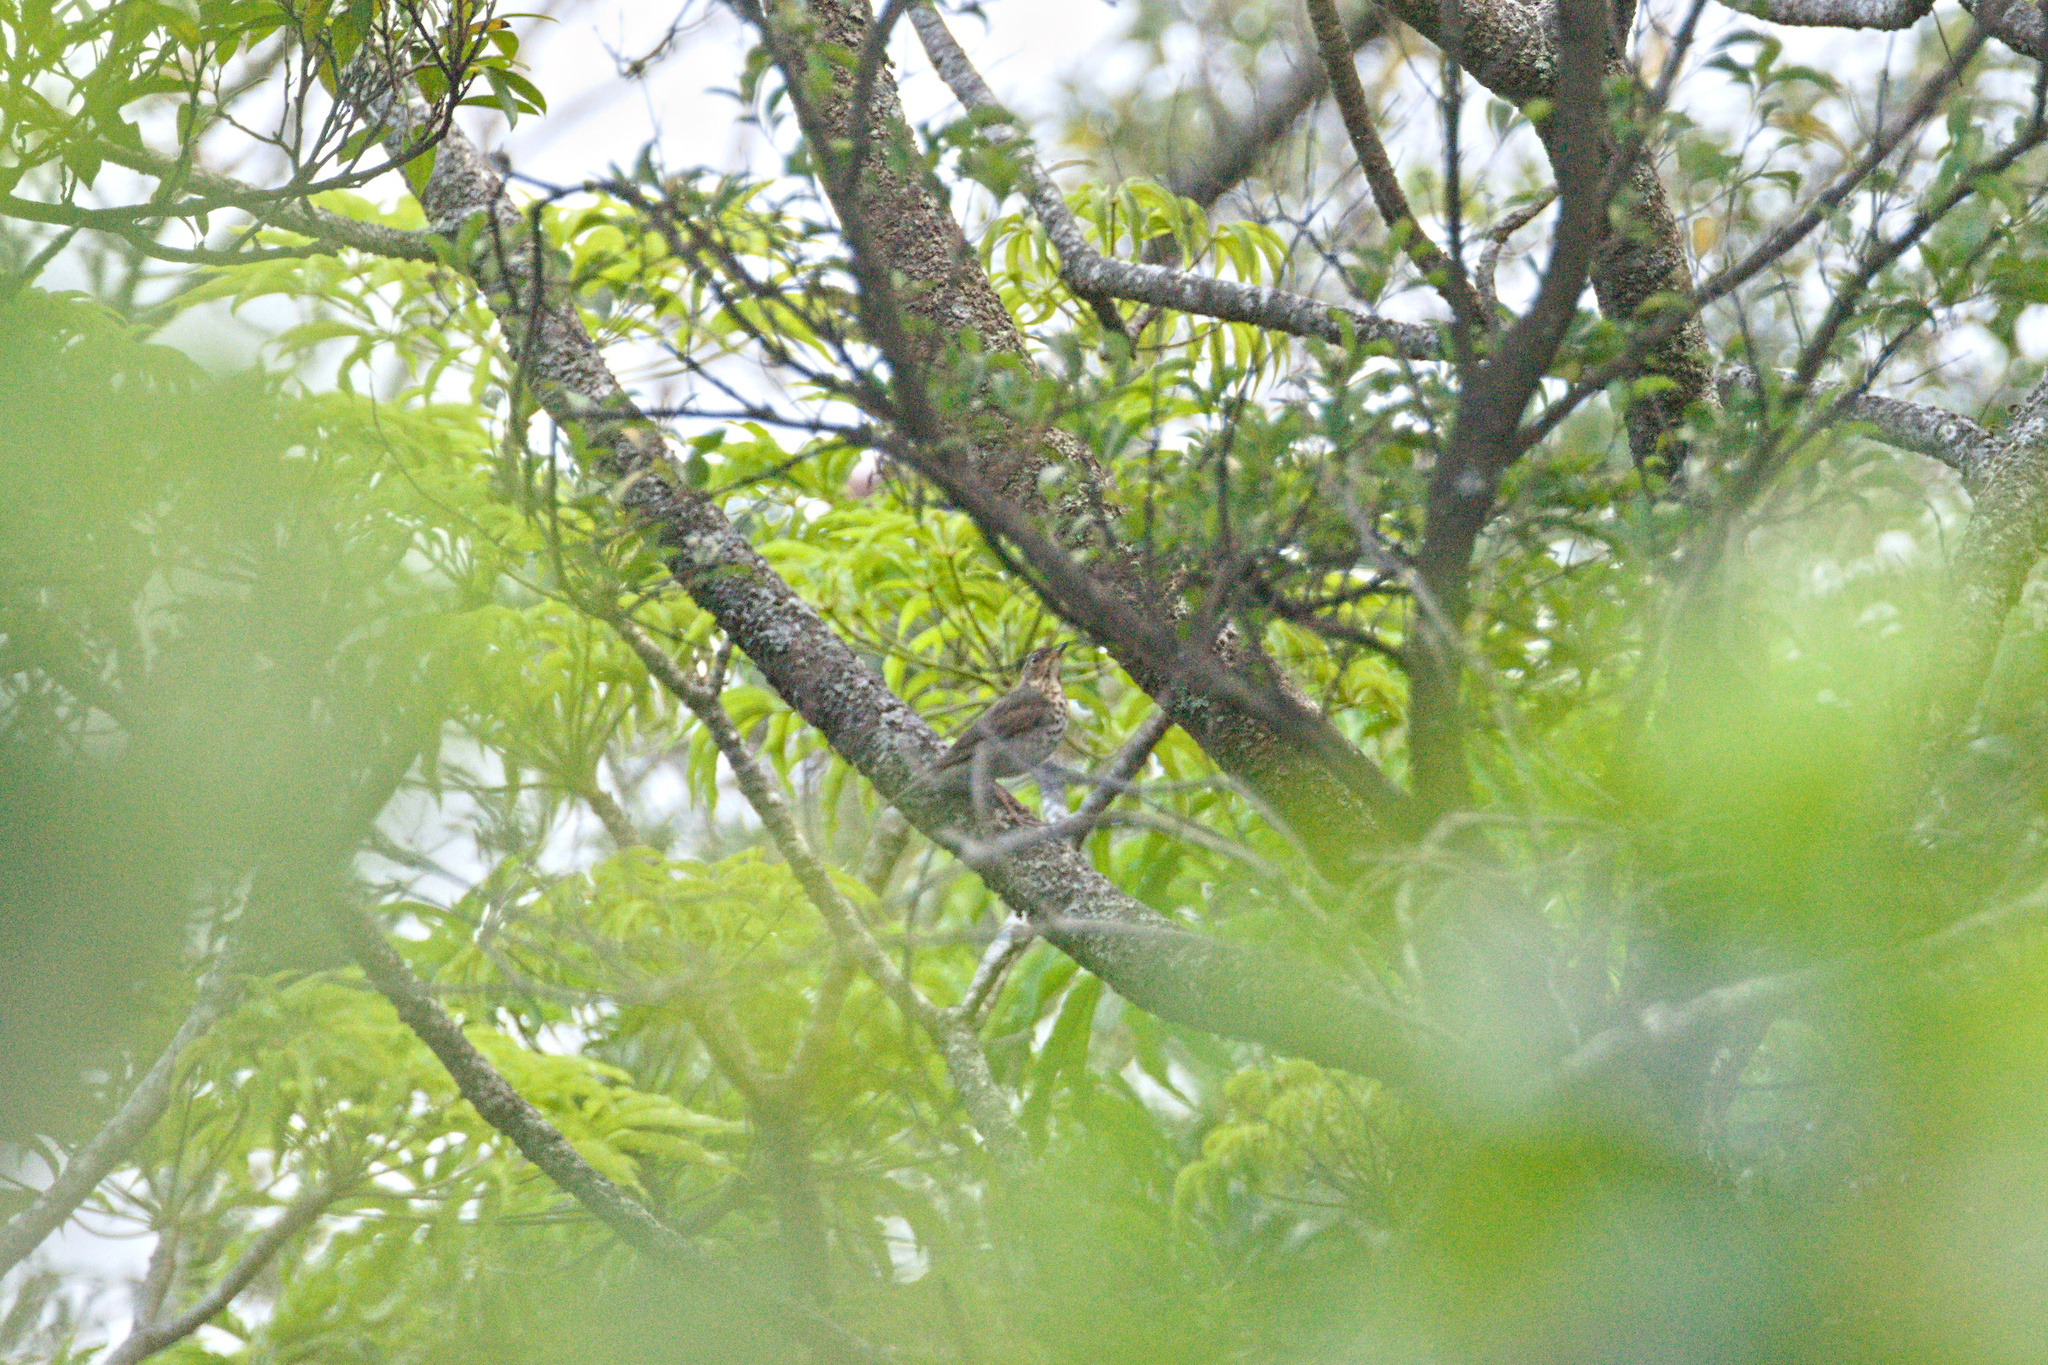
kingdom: Animalia
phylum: Chordata
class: Aves
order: Passeriformes
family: Turdidae
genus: Catharus
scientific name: Catharus ustulatus
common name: Swainson's thrush
